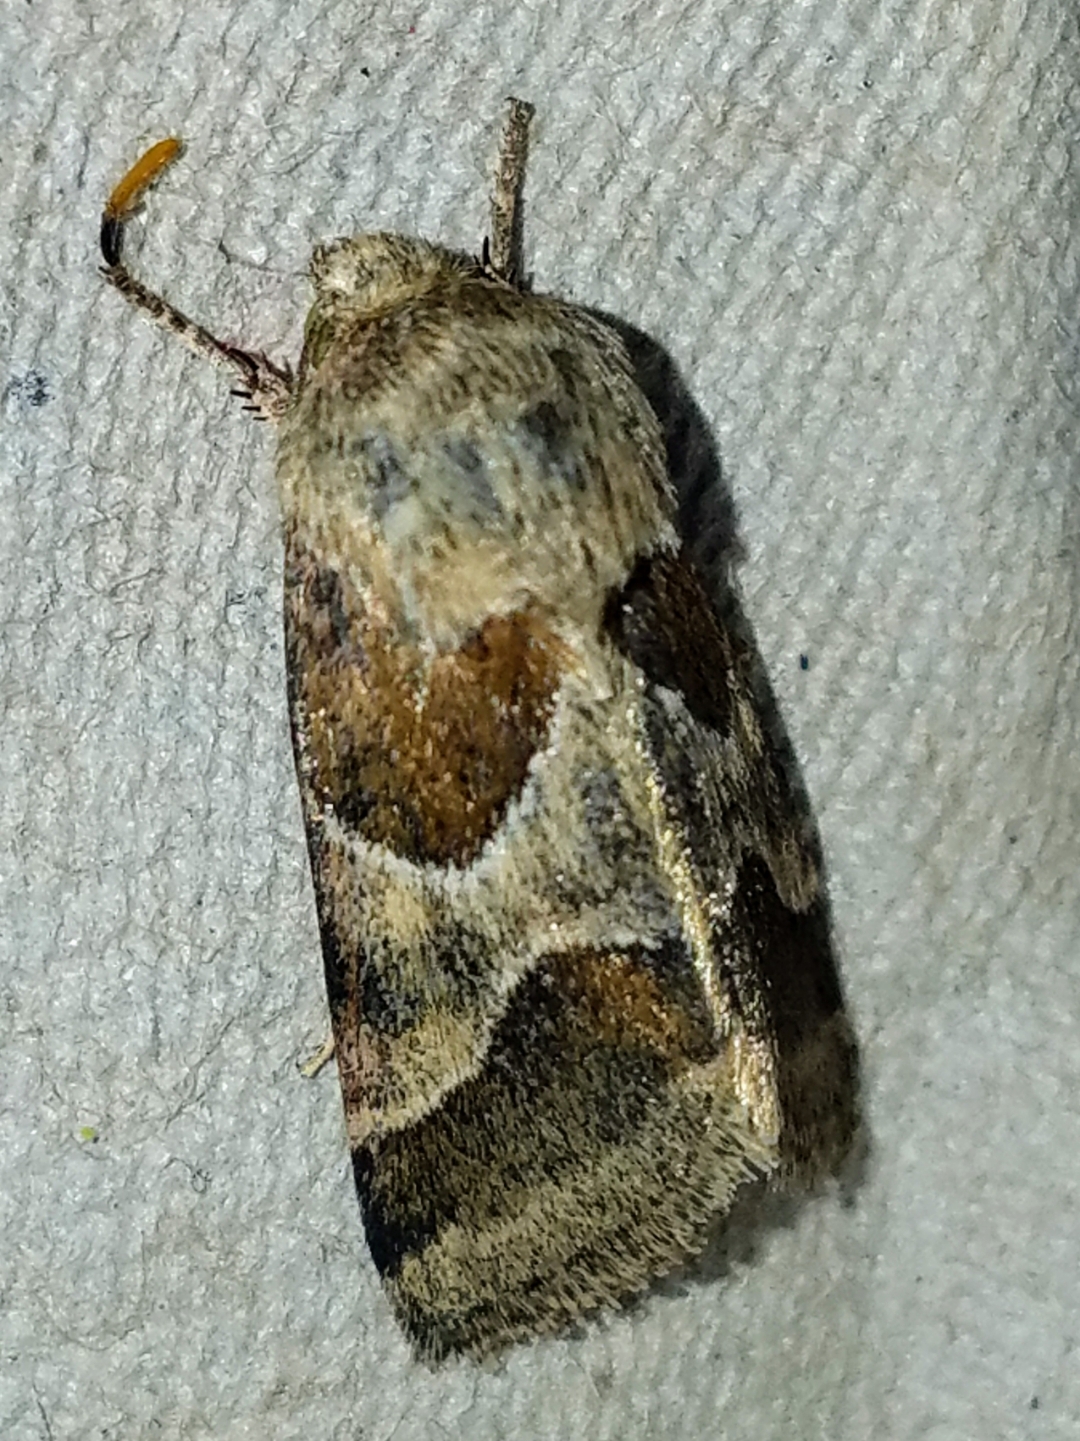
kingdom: Animalia
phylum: Arthropoda
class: Insecta
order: Lepidoptera
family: Noctuidae
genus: Schinia
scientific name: Schinia jaguarina
